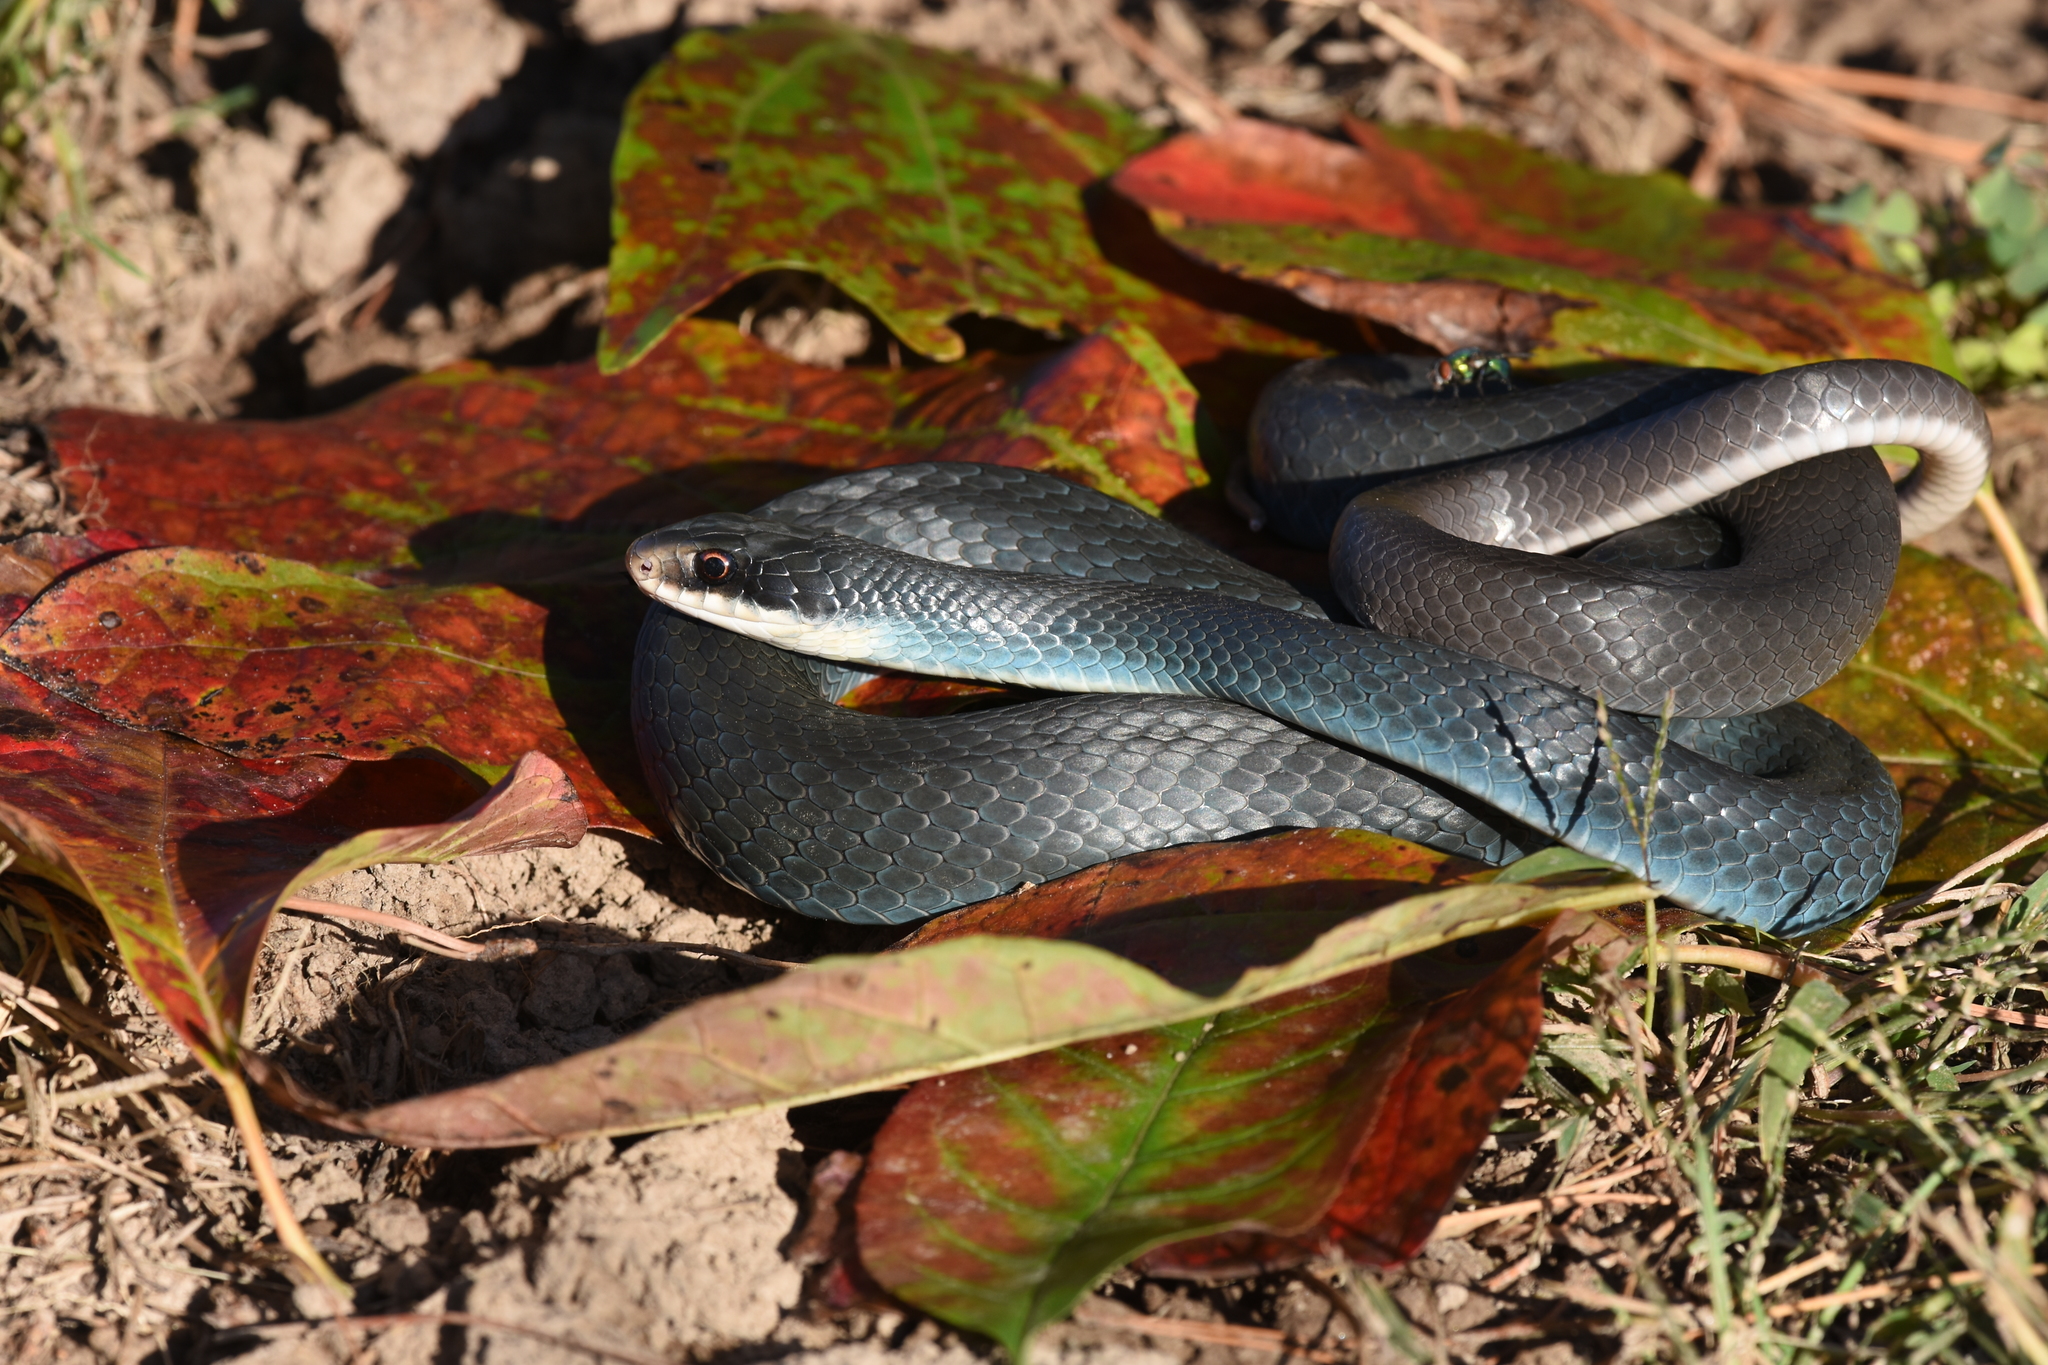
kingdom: Animalia
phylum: Chordata
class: Squamata
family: Colubridae
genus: Coluber
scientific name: Coluber constrictor
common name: Eastern racer
